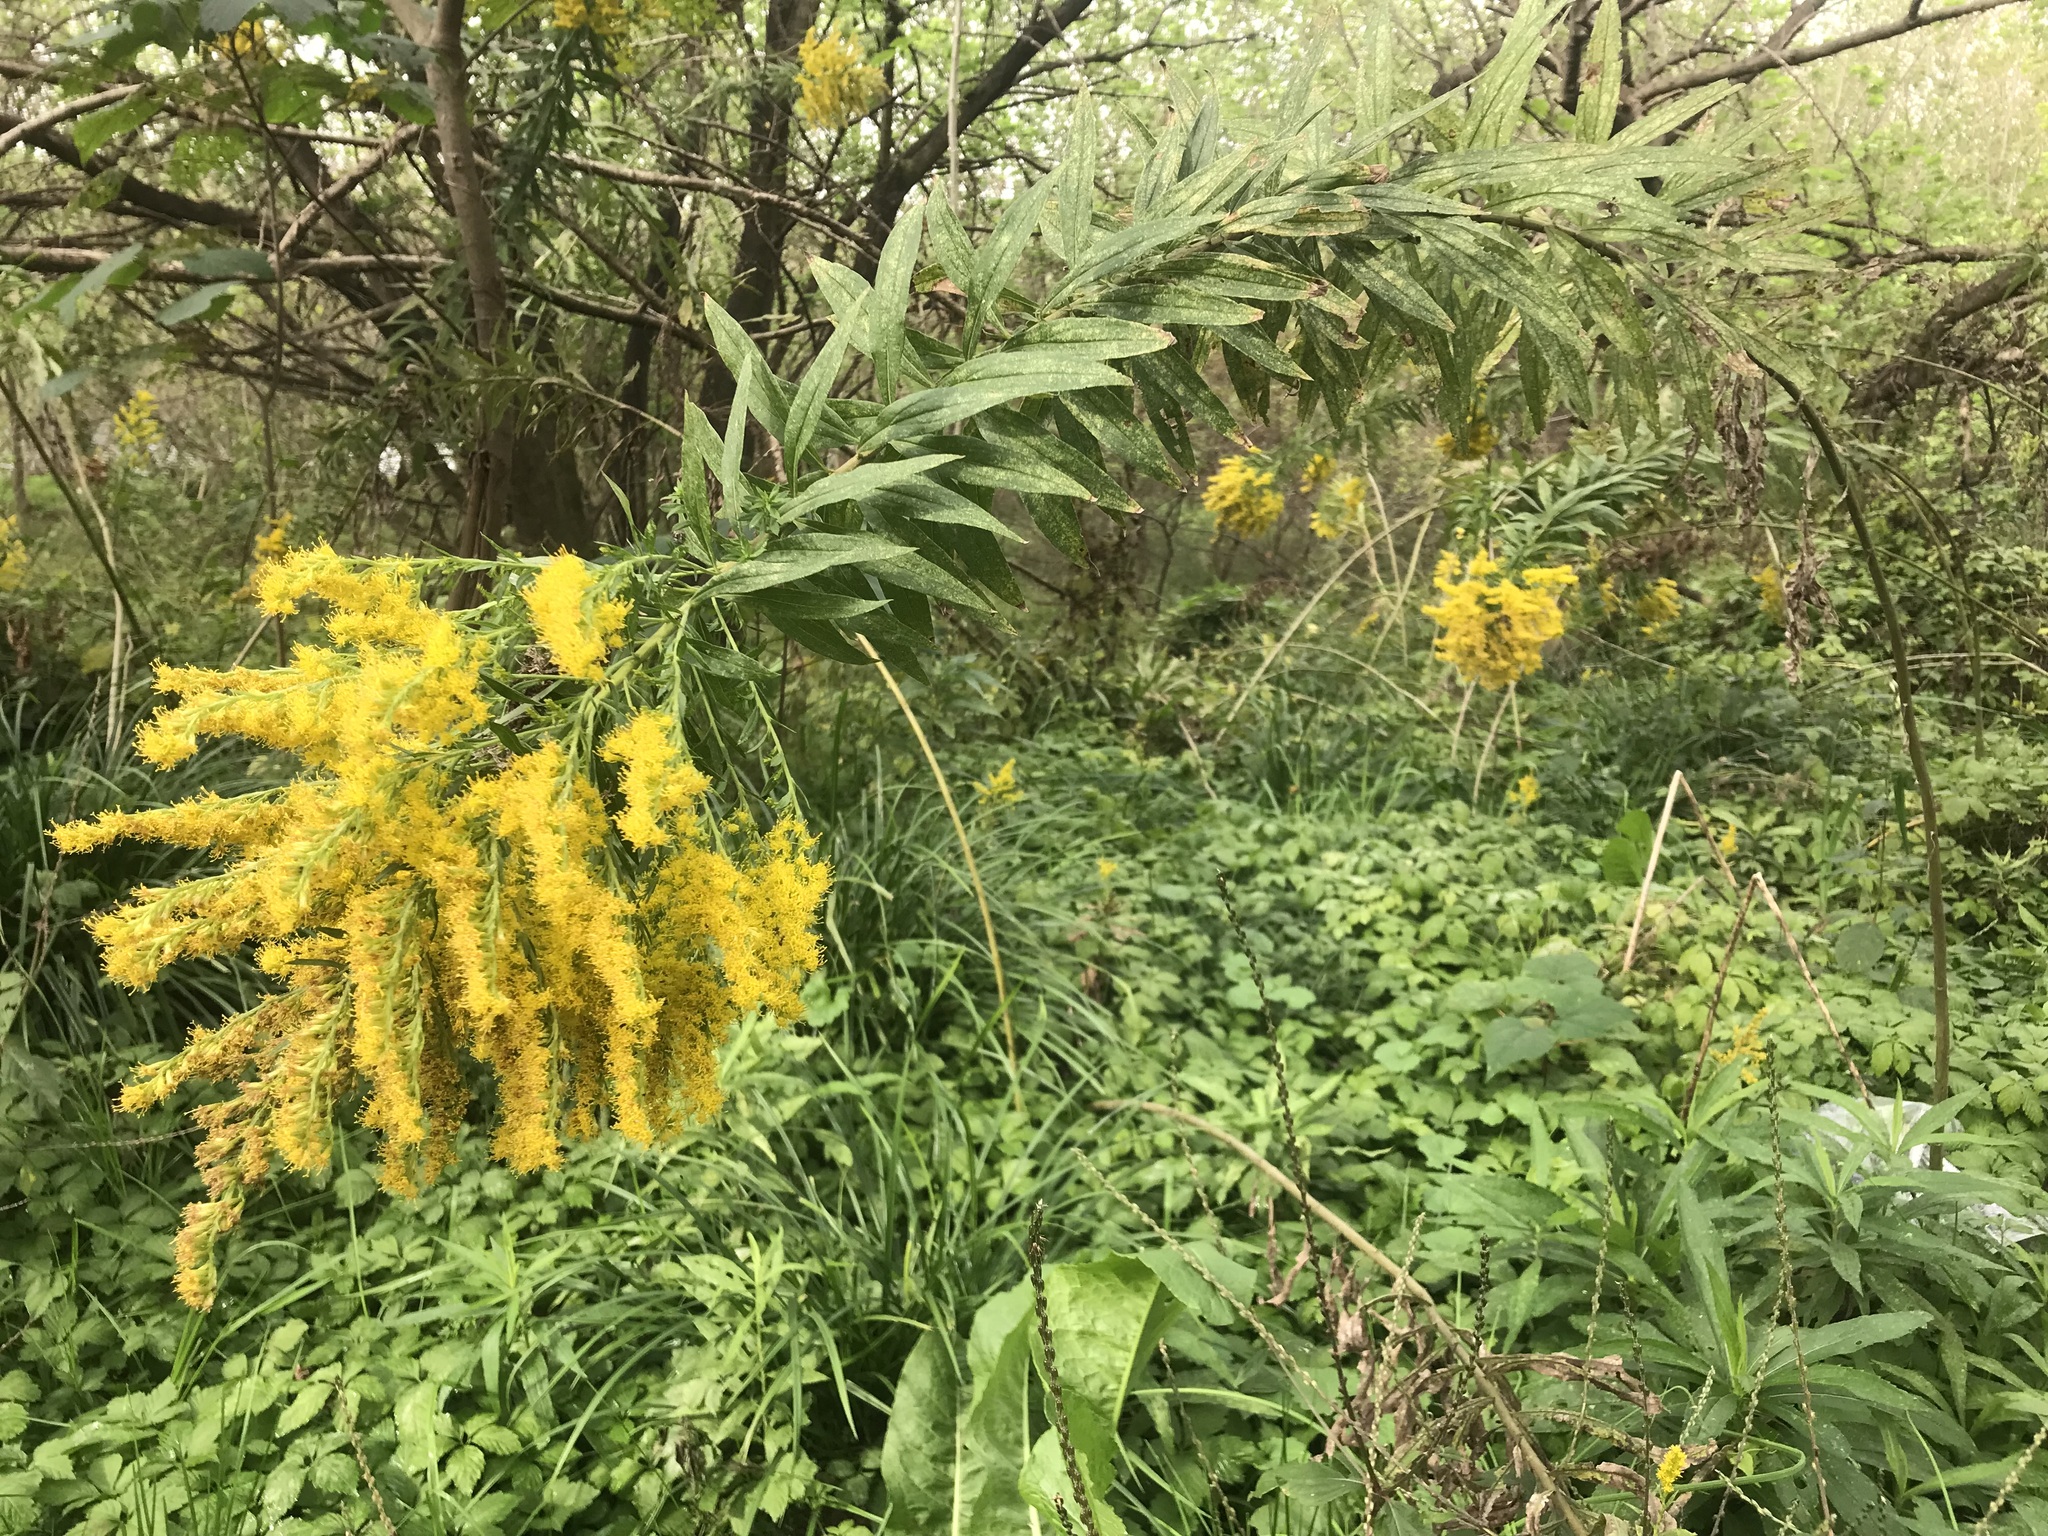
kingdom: Plantae
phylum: Tracheophyta
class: Magnoliopsida
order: Asterales
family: Asteraceae
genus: Solidago
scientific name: Solidago altissima
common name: Late goldenrod
